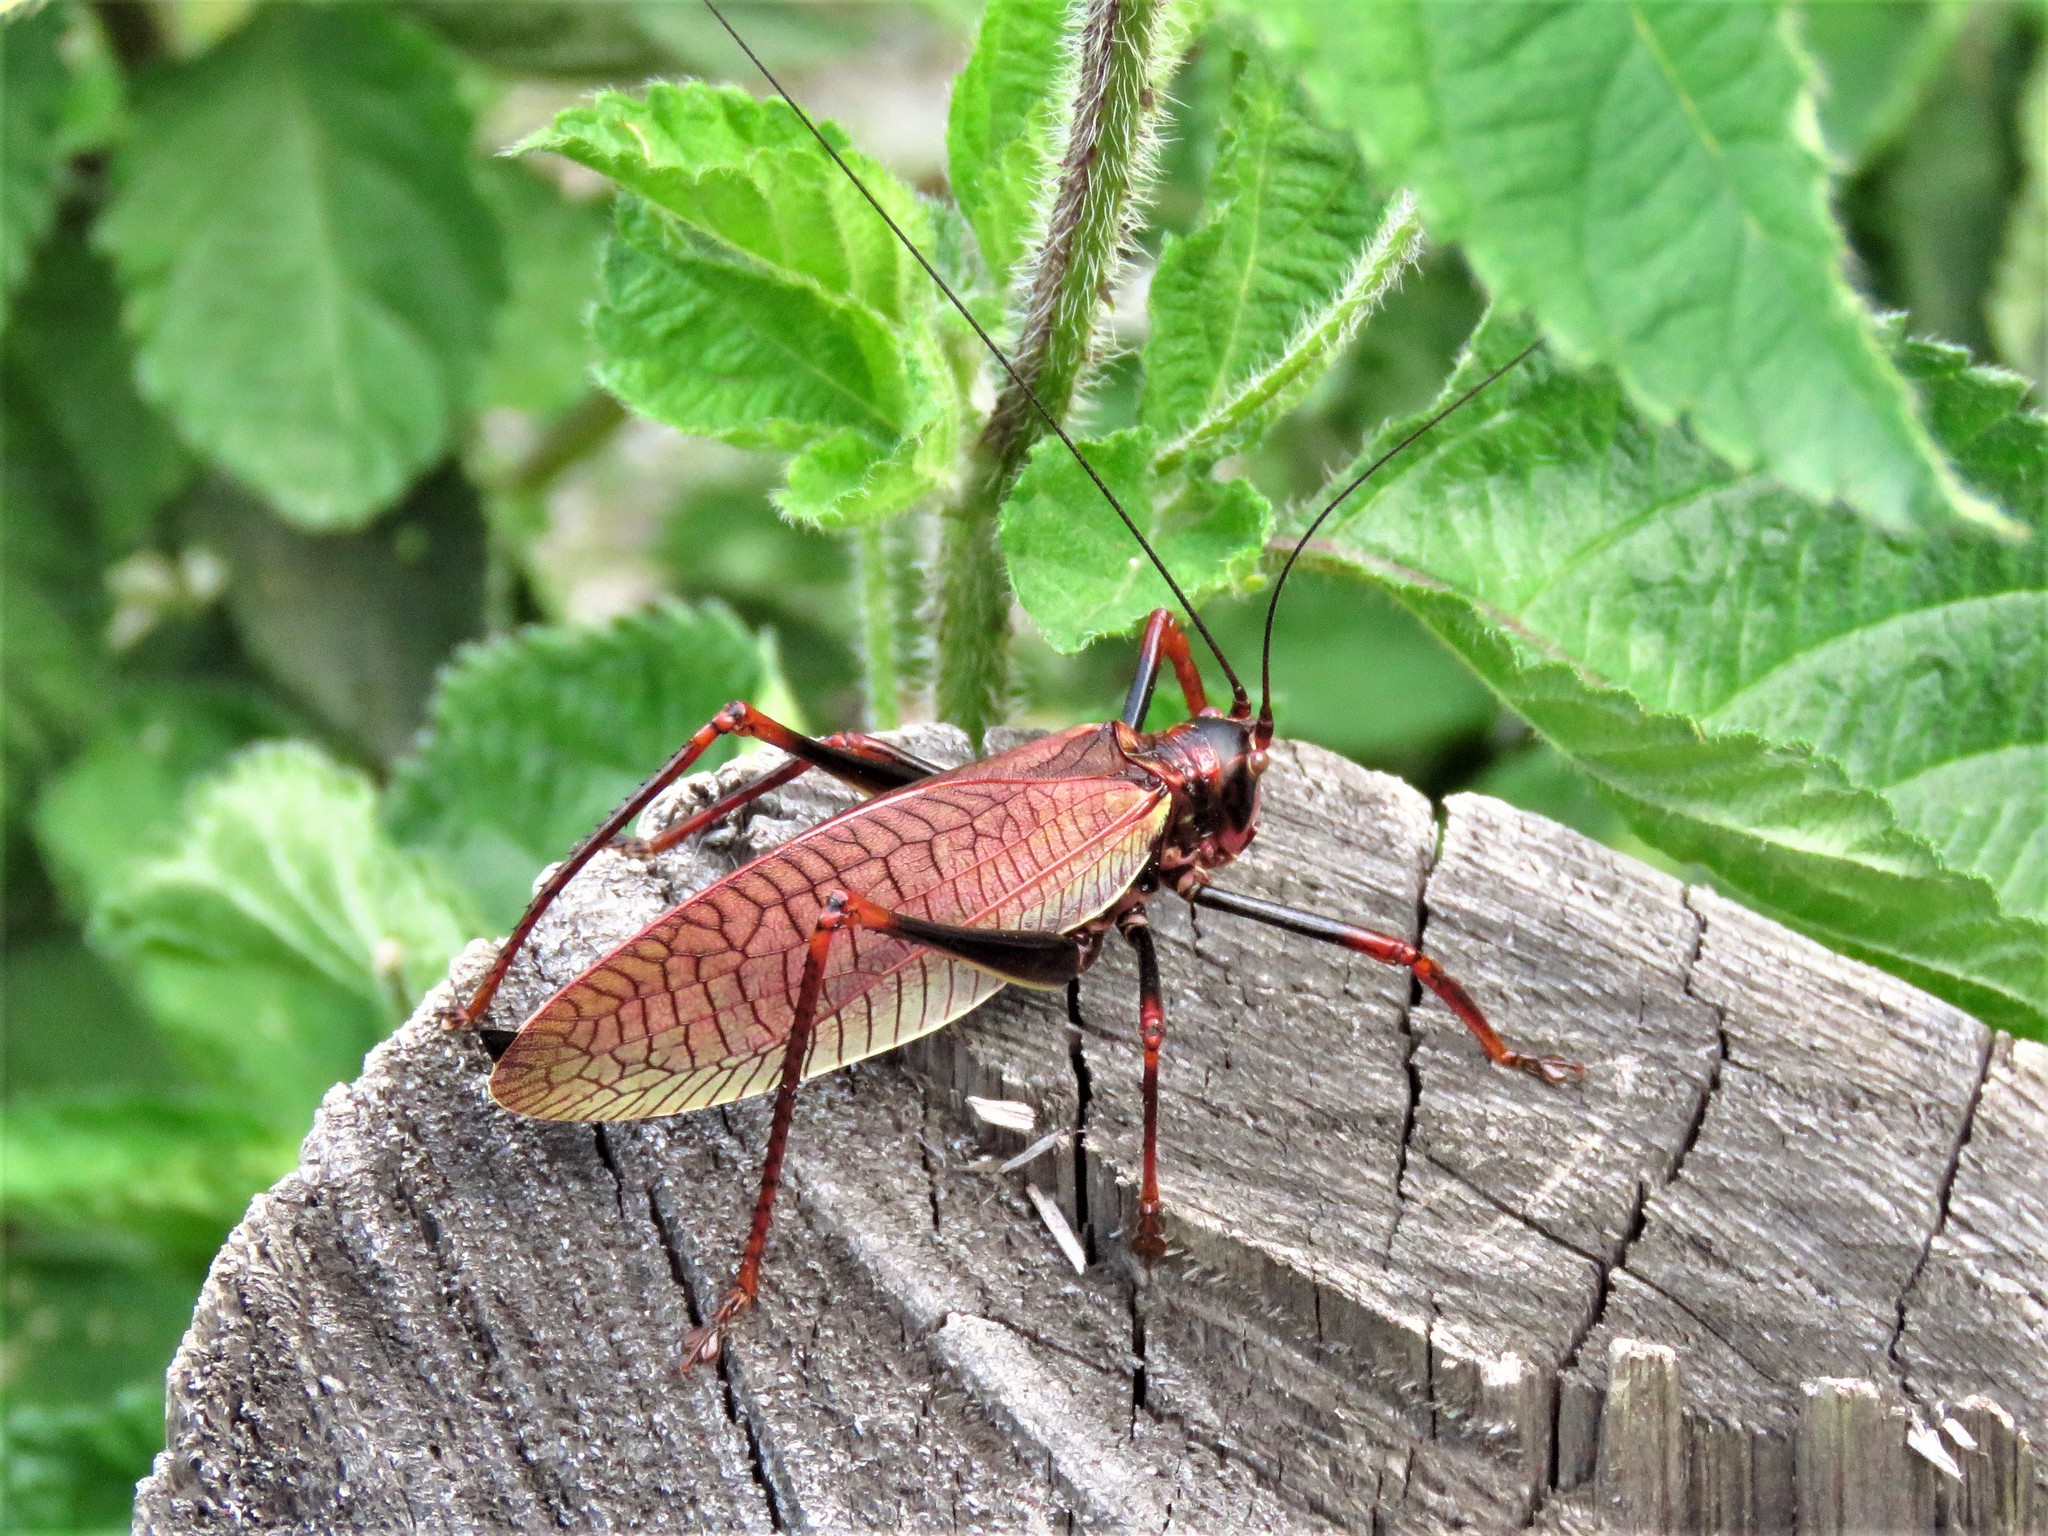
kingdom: Animalia
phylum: Arthropoda
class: Insecta
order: Orthoptera
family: Tettigoniidae
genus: Pterophylla
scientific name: Pterophylla beltrani
